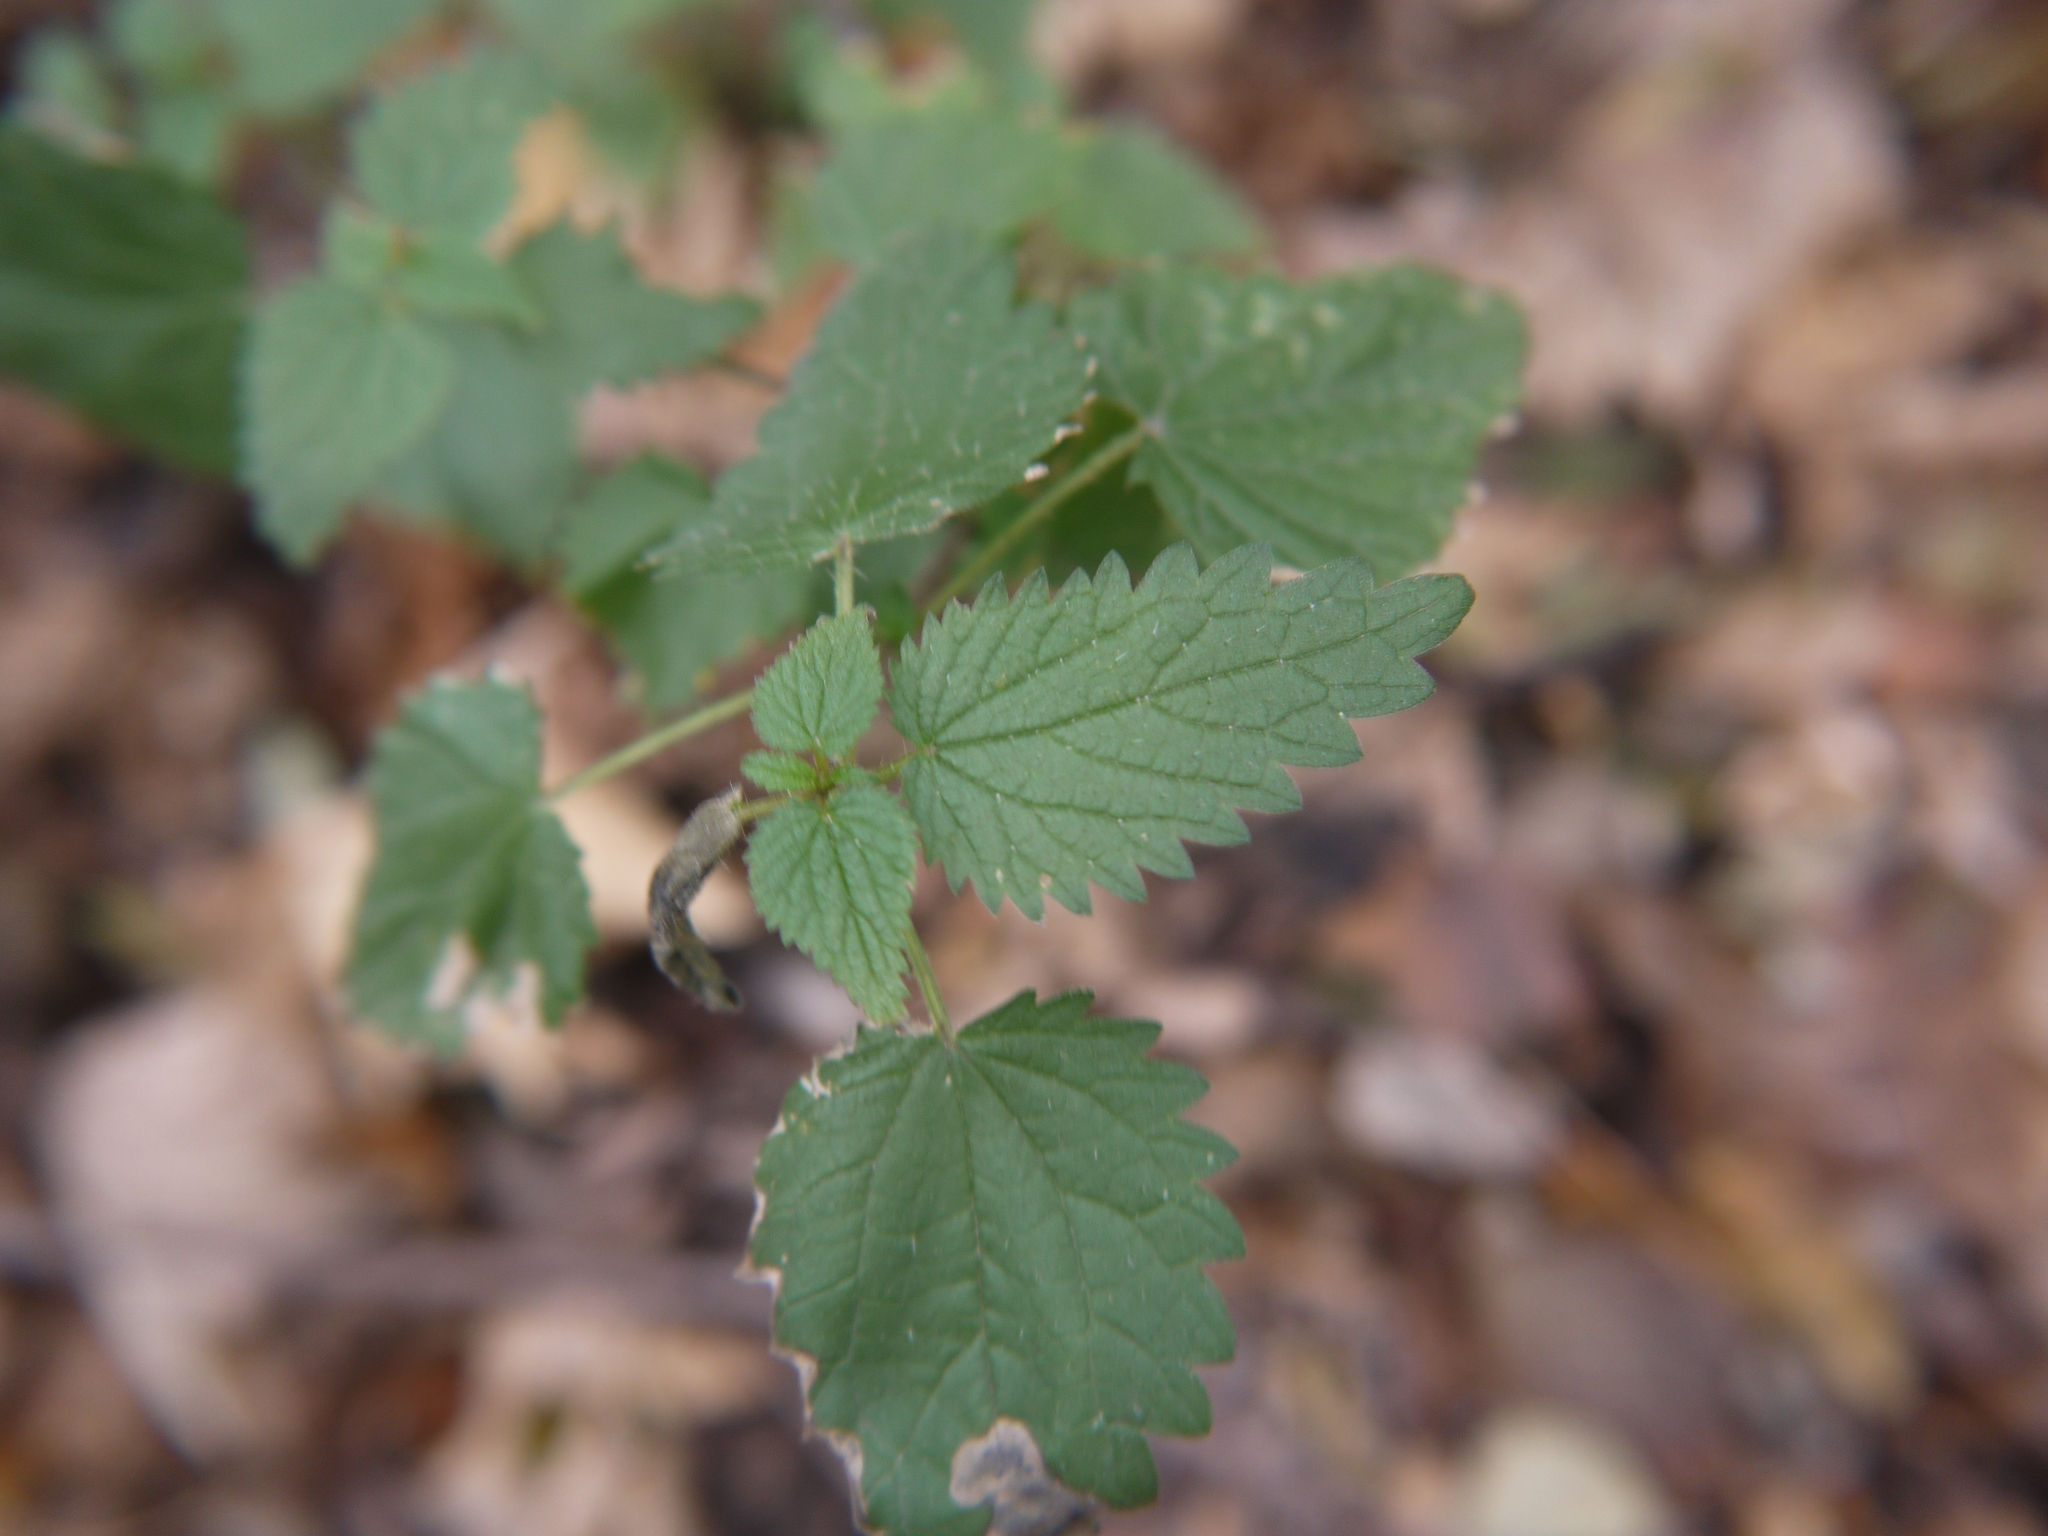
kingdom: Plantae
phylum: Tracheophyta
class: Magnoliopsida
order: Rosales
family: Urticaceae
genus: Urtica
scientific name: Urtica dioica
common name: Common nettle
